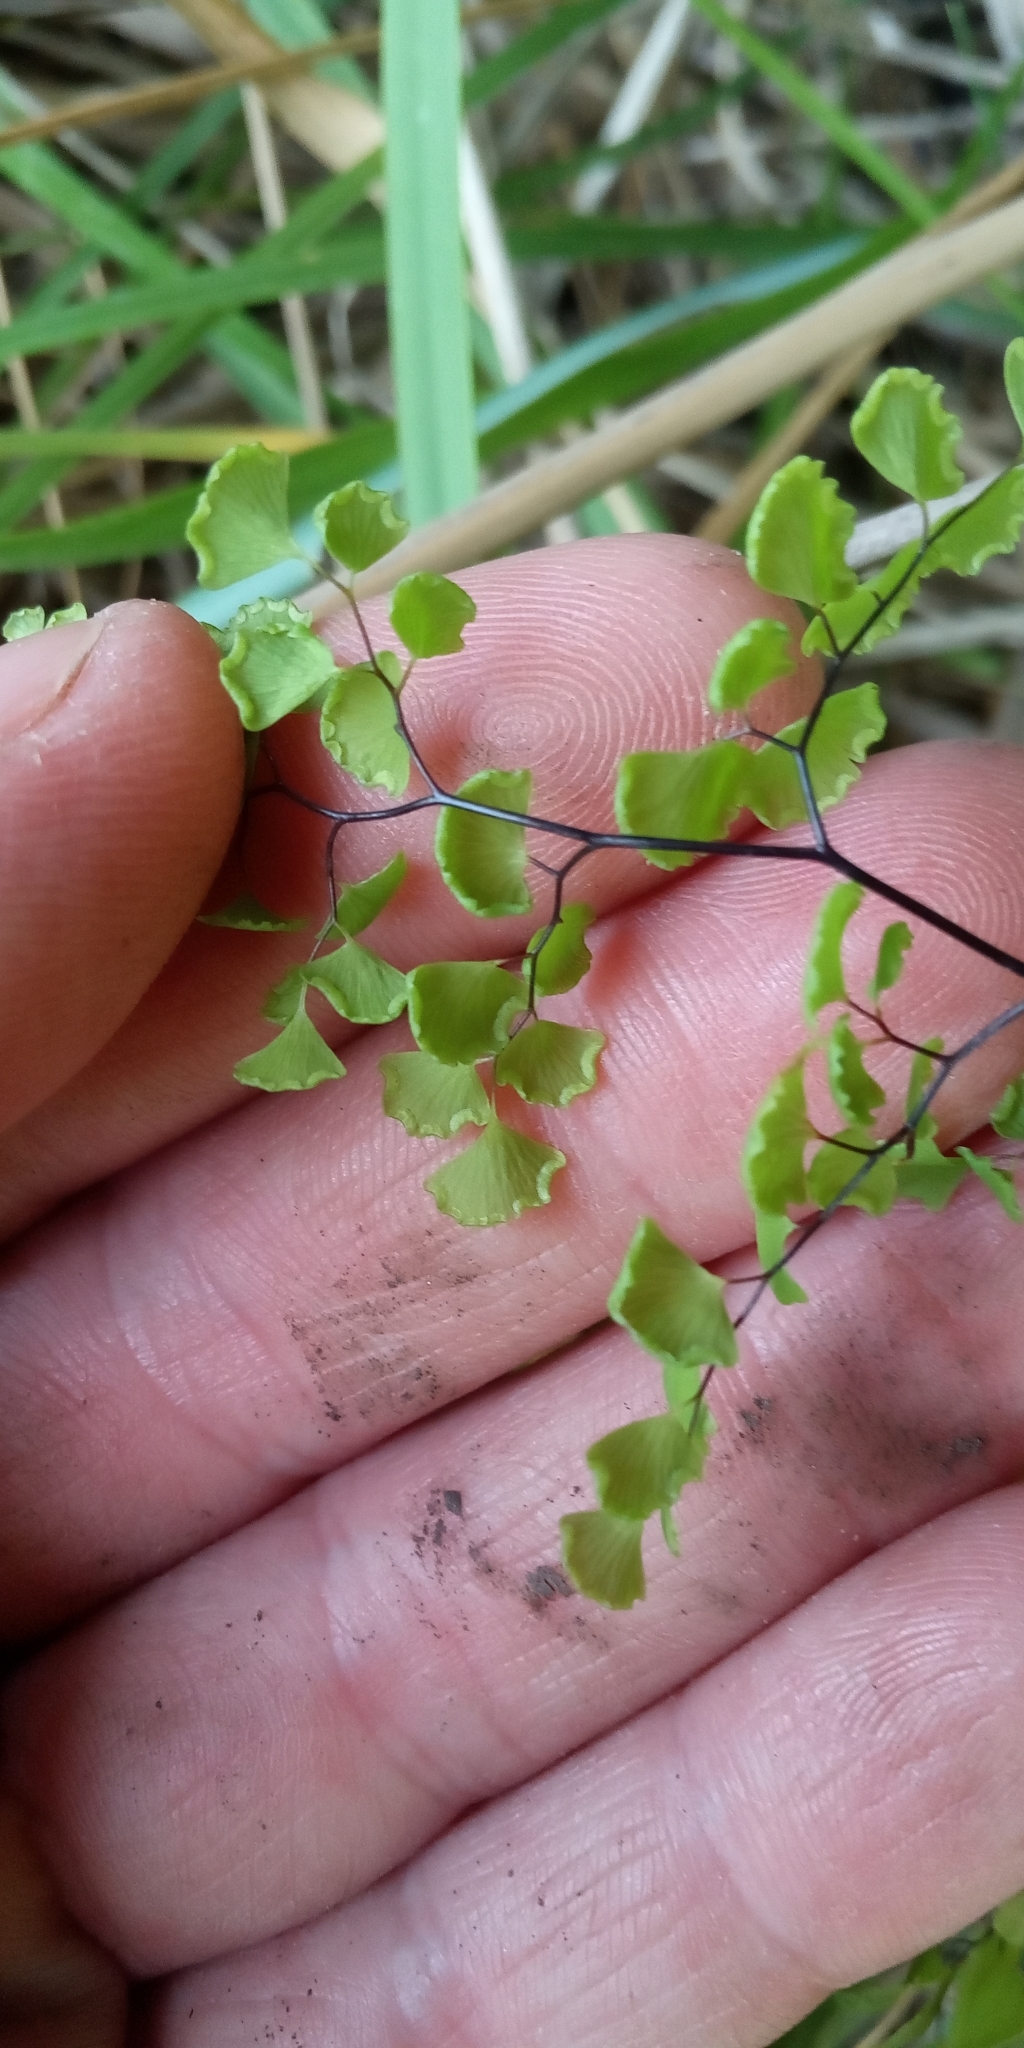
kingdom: Plantae
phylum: Tracheophyta
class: Polypodiopsida
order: Polypodiales
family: Pteridaceae
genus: Adiantum
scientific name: Adiantum chilense
